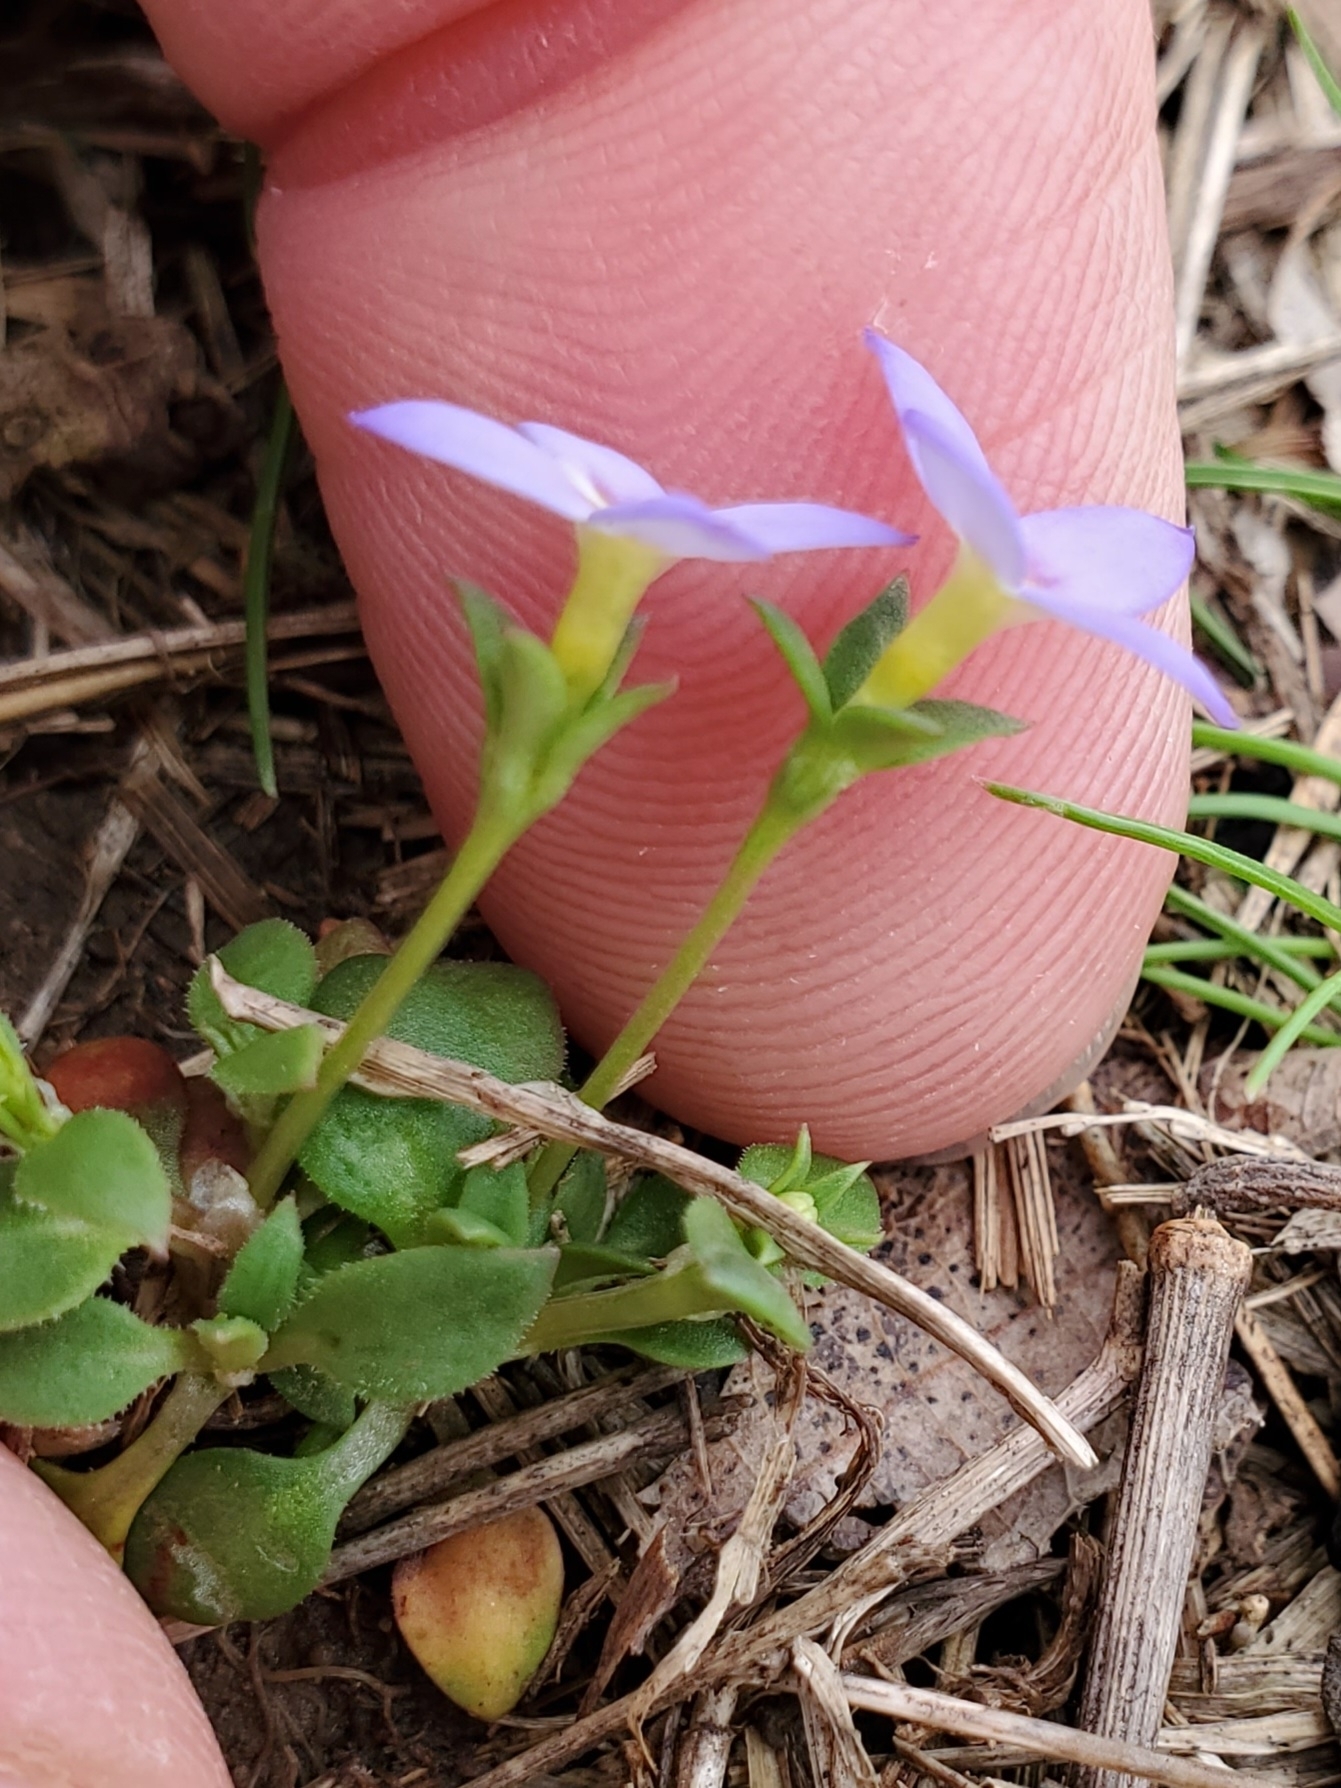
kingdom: Plantae
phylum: Tracheophyta
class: Magnoliopsida
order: Gentianales
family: Rubiaceae
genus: Houstonia
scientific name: Houstonia pusilla
